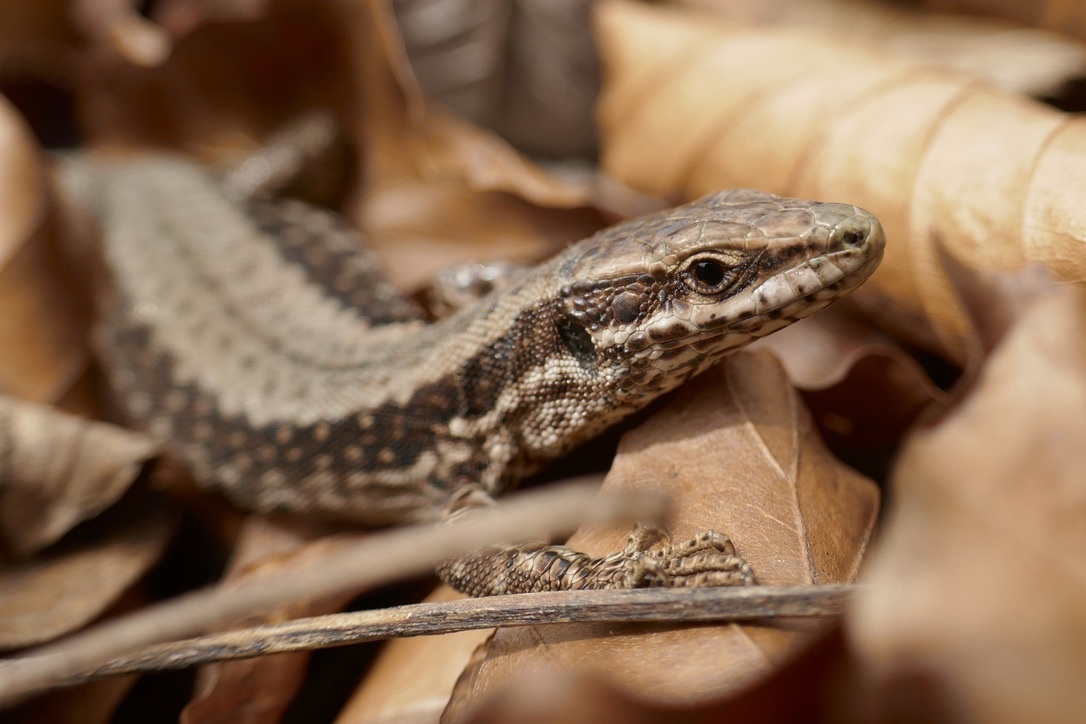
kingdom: Animalia
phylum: Chordata
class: Squamata
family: Lacertidae
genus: Podarcis
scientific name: Podarcis muralis
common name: Common wall lizard
